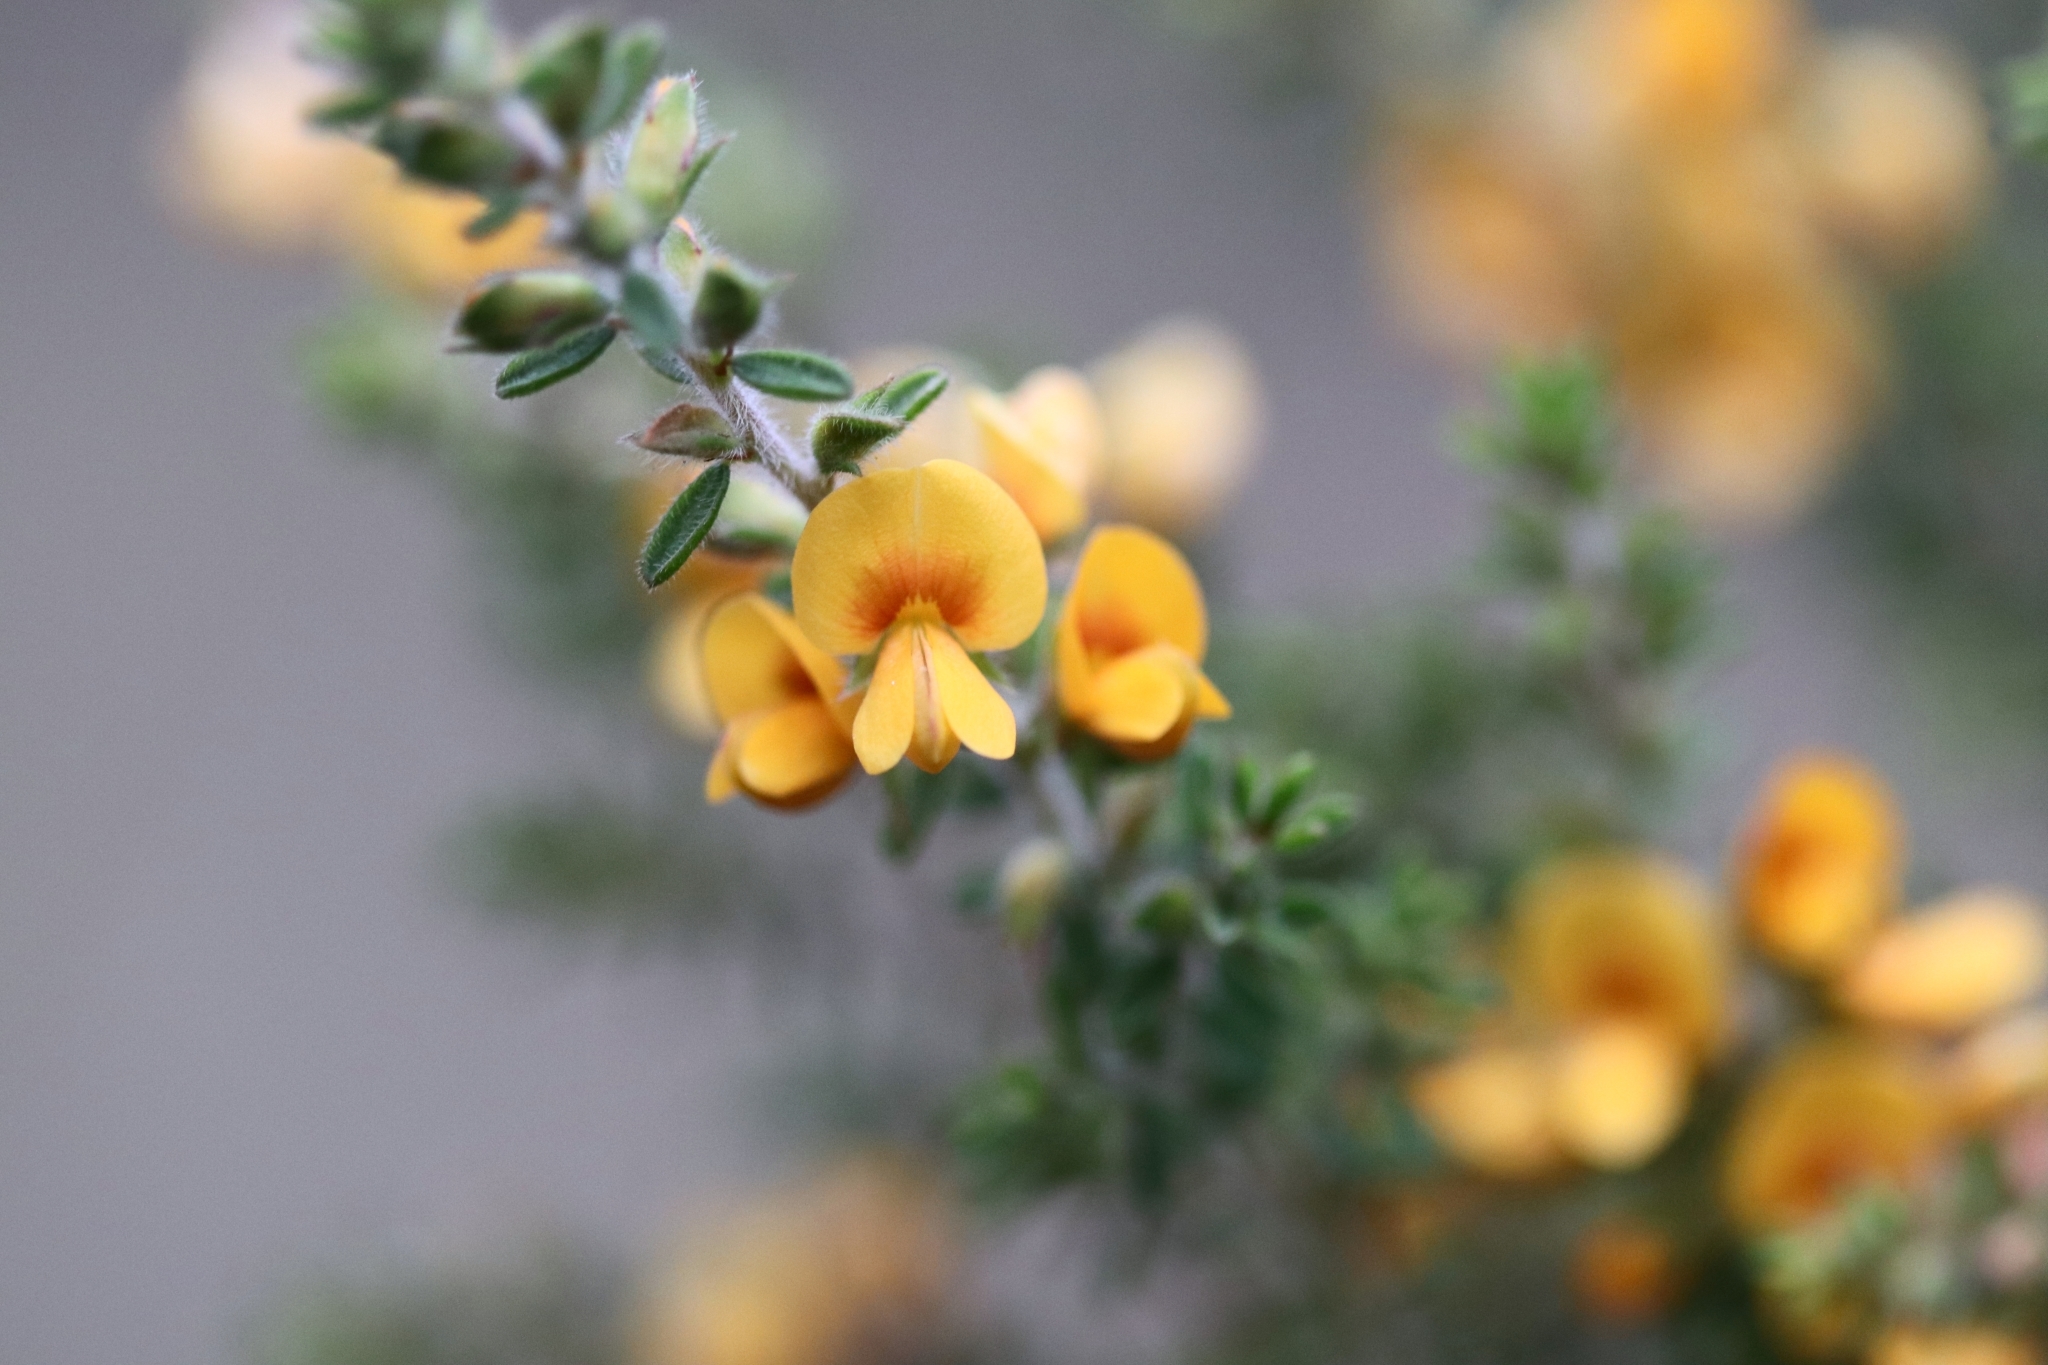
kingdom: Plantae
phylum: Tracheophyta
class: Magnoliopsida
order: Fabales
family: Fabaceae
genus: Pultenaea
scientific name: Pultenaea villosa
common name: Bronze bush-pea
